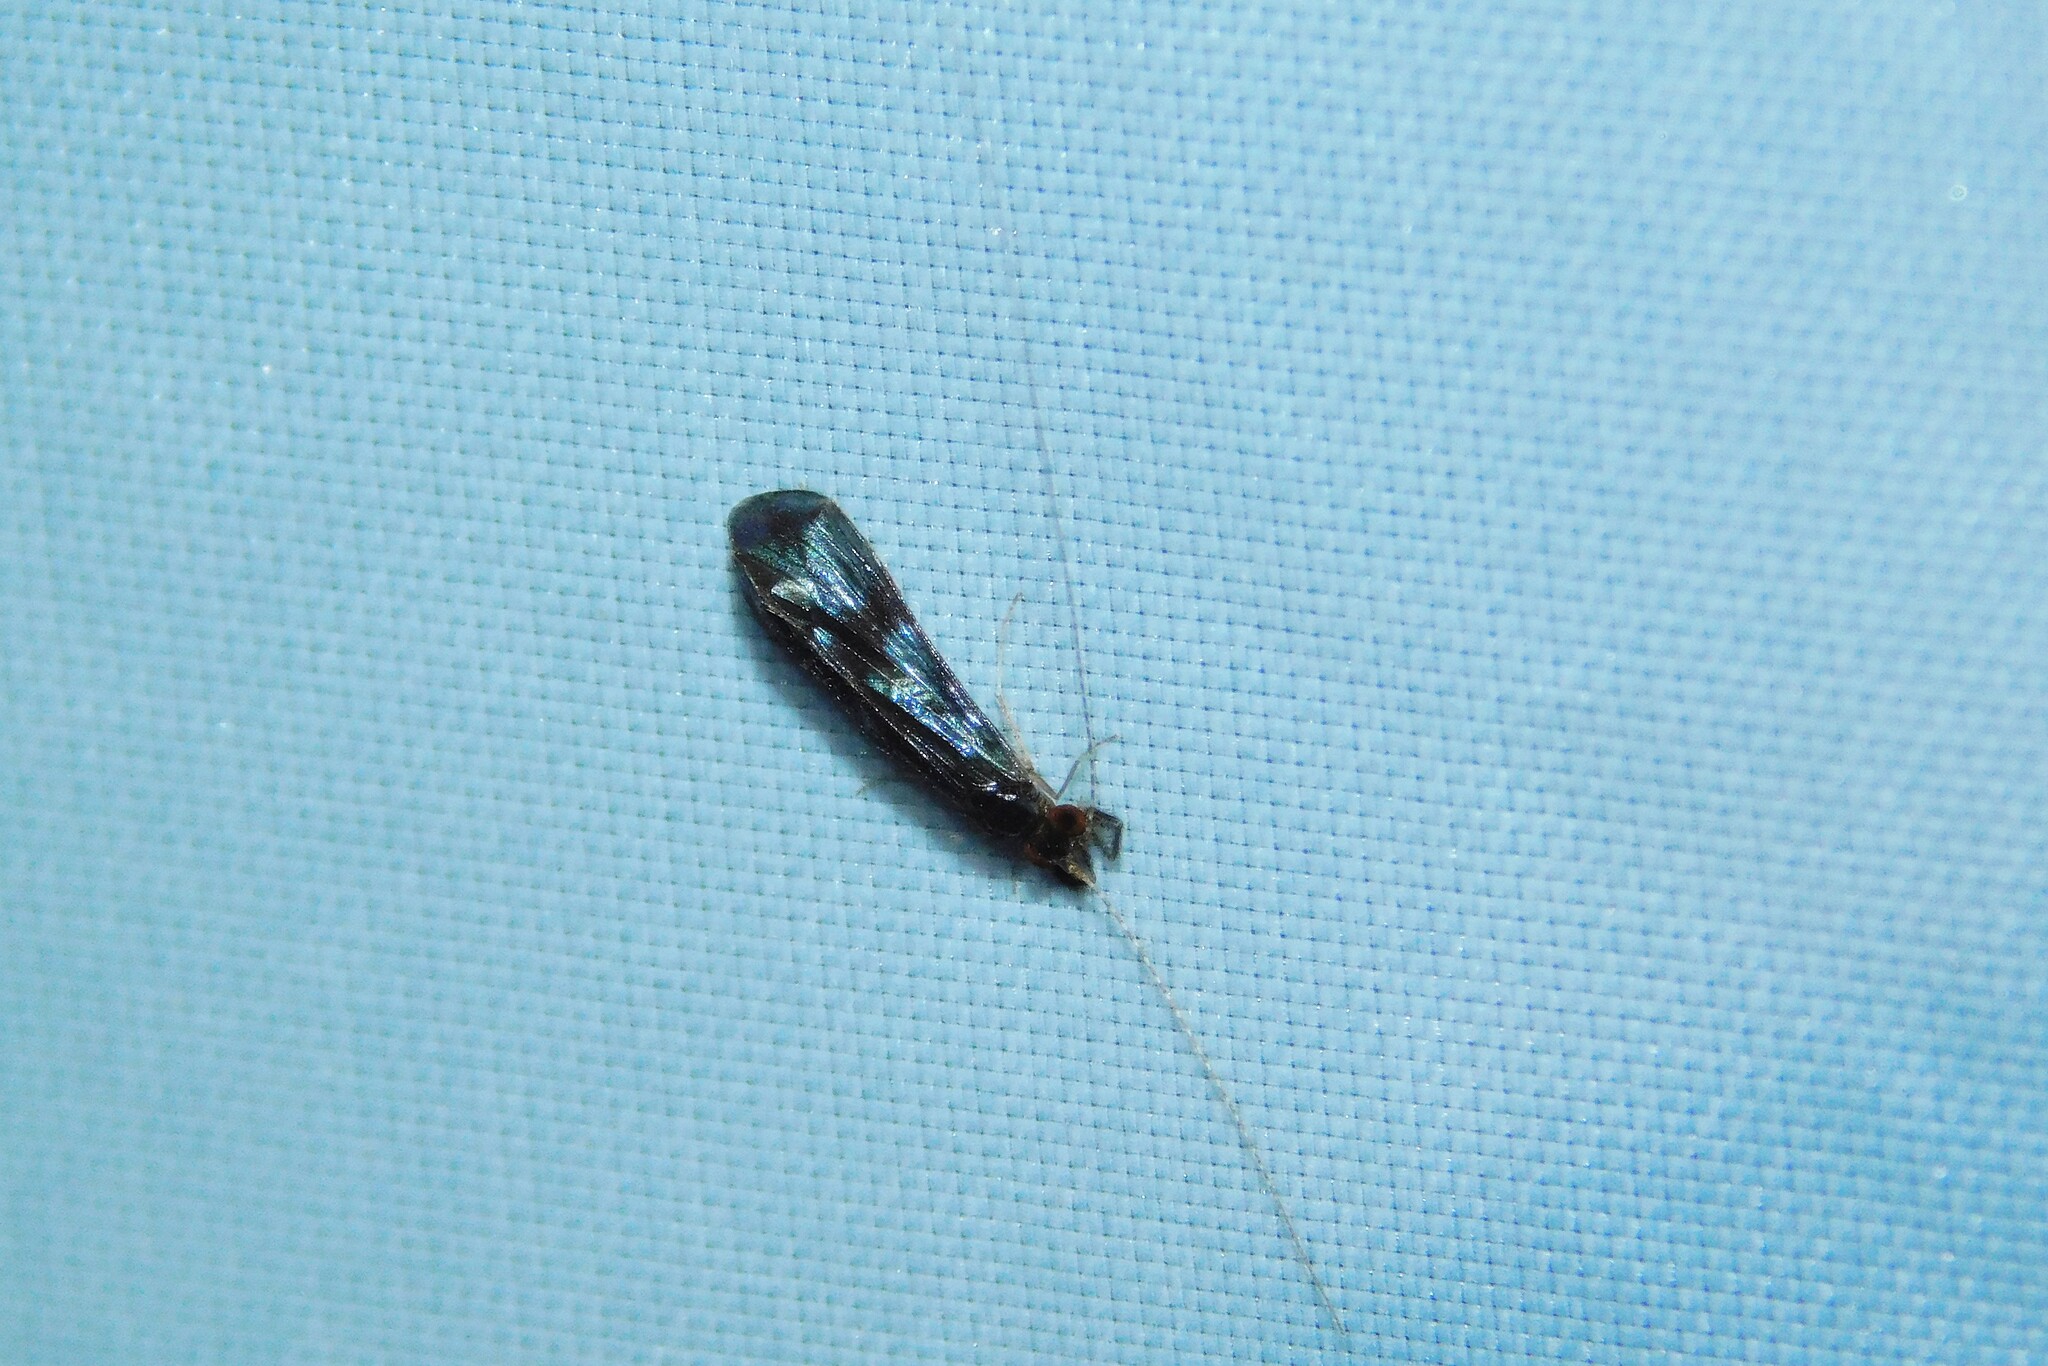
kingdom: Animalia
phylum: Arthropoda
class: Insecta
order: Trichoptera
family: Leptoceridae
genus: Mystacides
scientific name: Mystacides azureus
